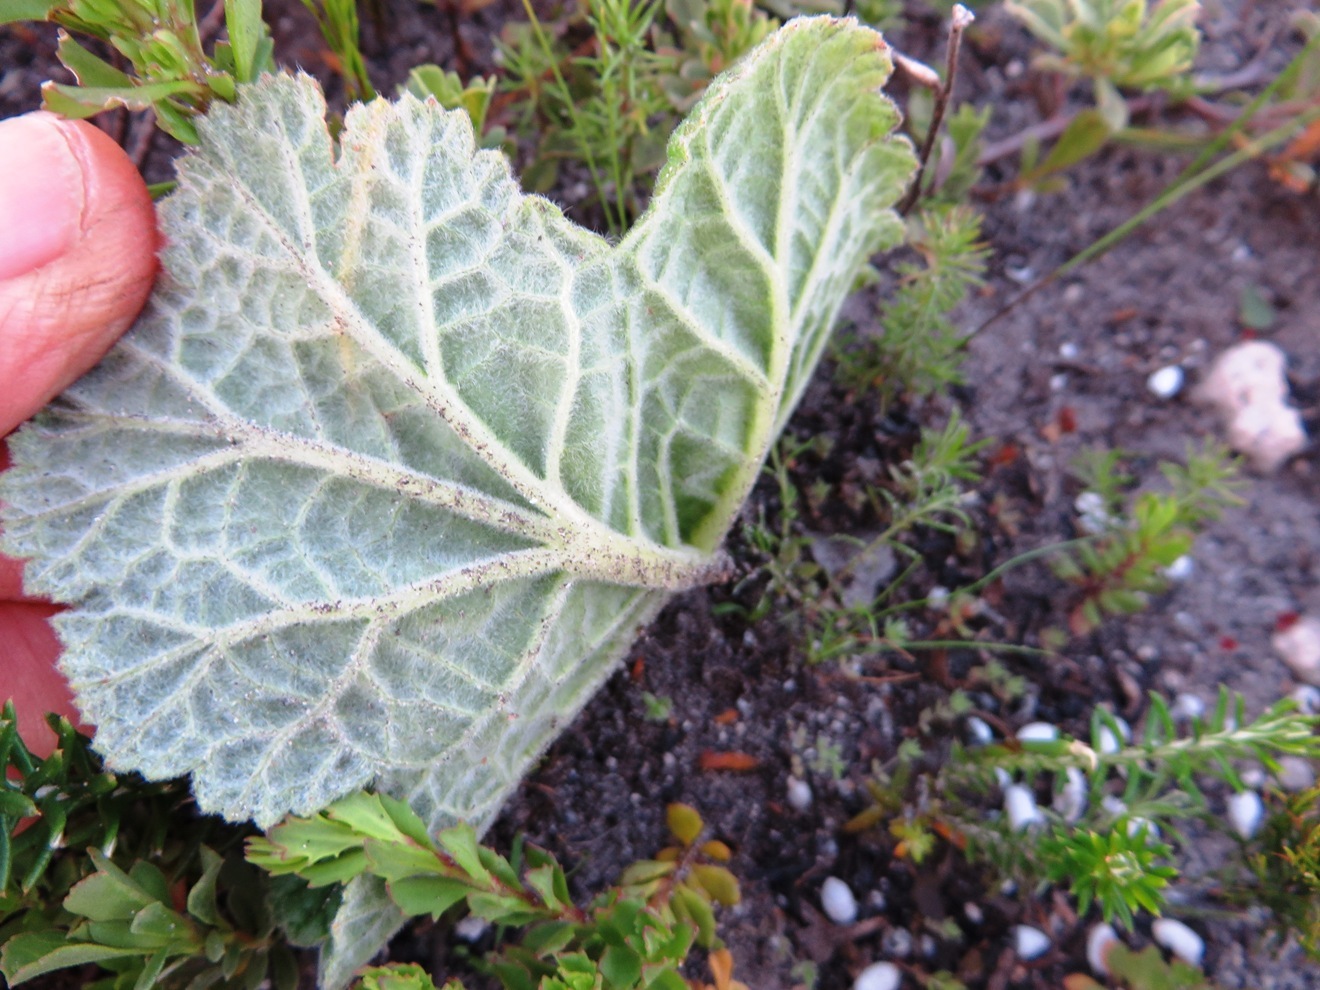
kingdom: Plantae
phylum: Tracheophyta
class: Magnoliopsida
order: Geraniales
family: Geraniaceae
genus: Pelargonium
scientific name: Pelargonium lobatum
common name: Vine-leaf pelargonium
